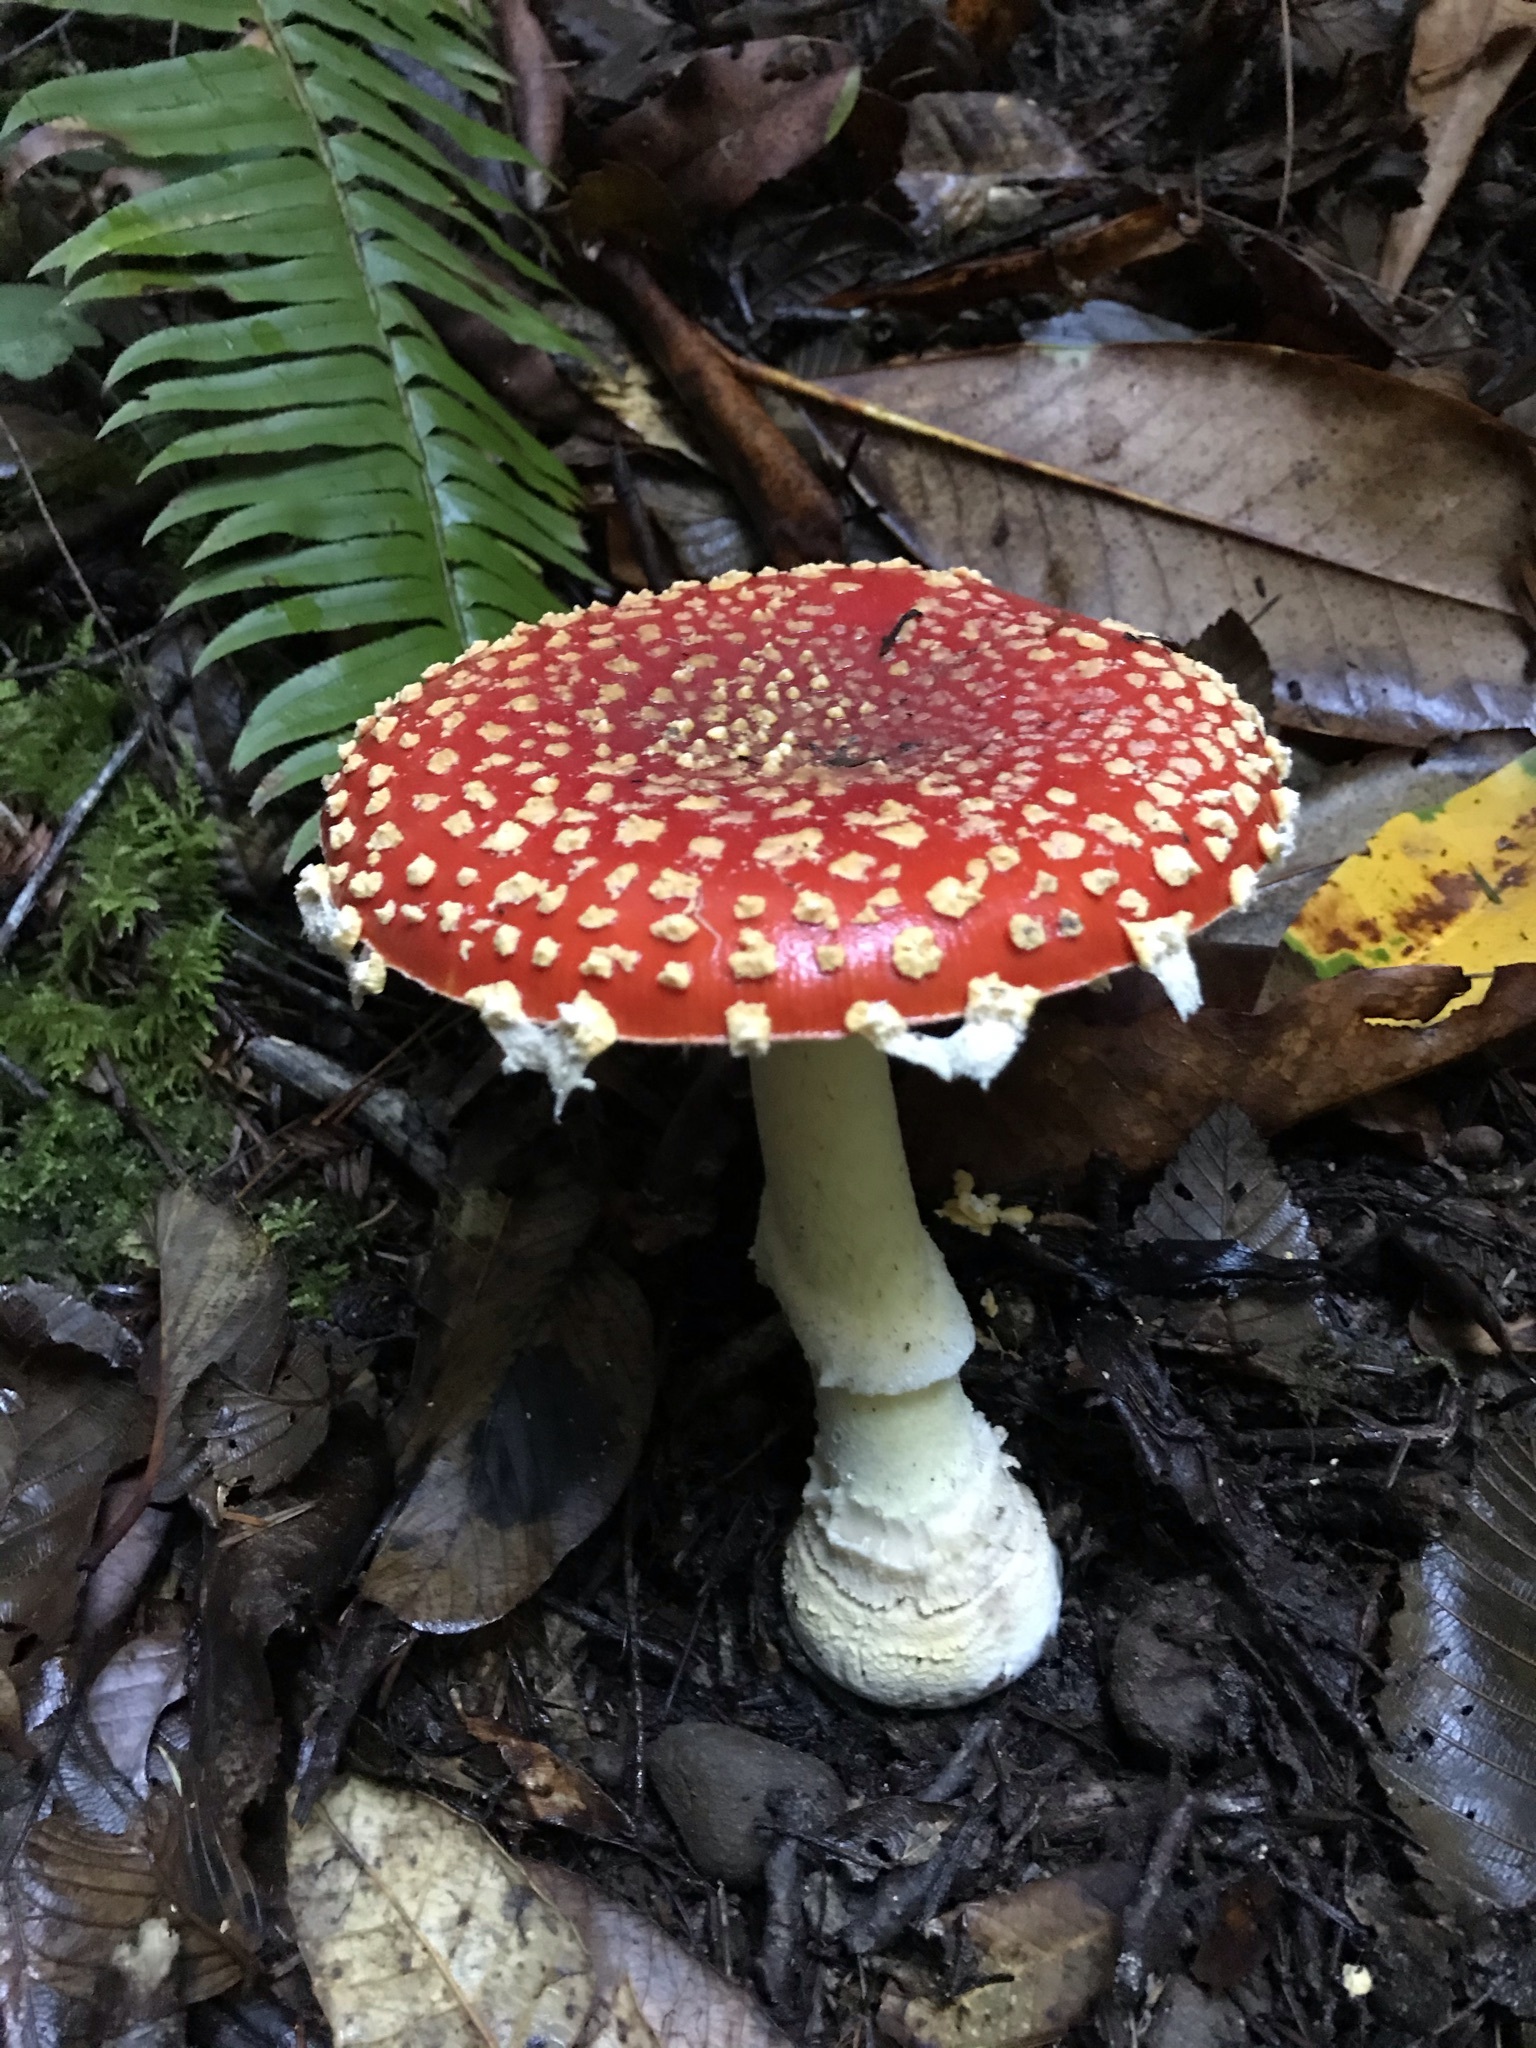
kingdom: Fungi
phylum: Basidiomycota
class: Agaricomycetes
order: Agaricales
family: Amanitaceae
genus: Amanita
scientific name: Amanita muscaria
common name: Fly agaric
